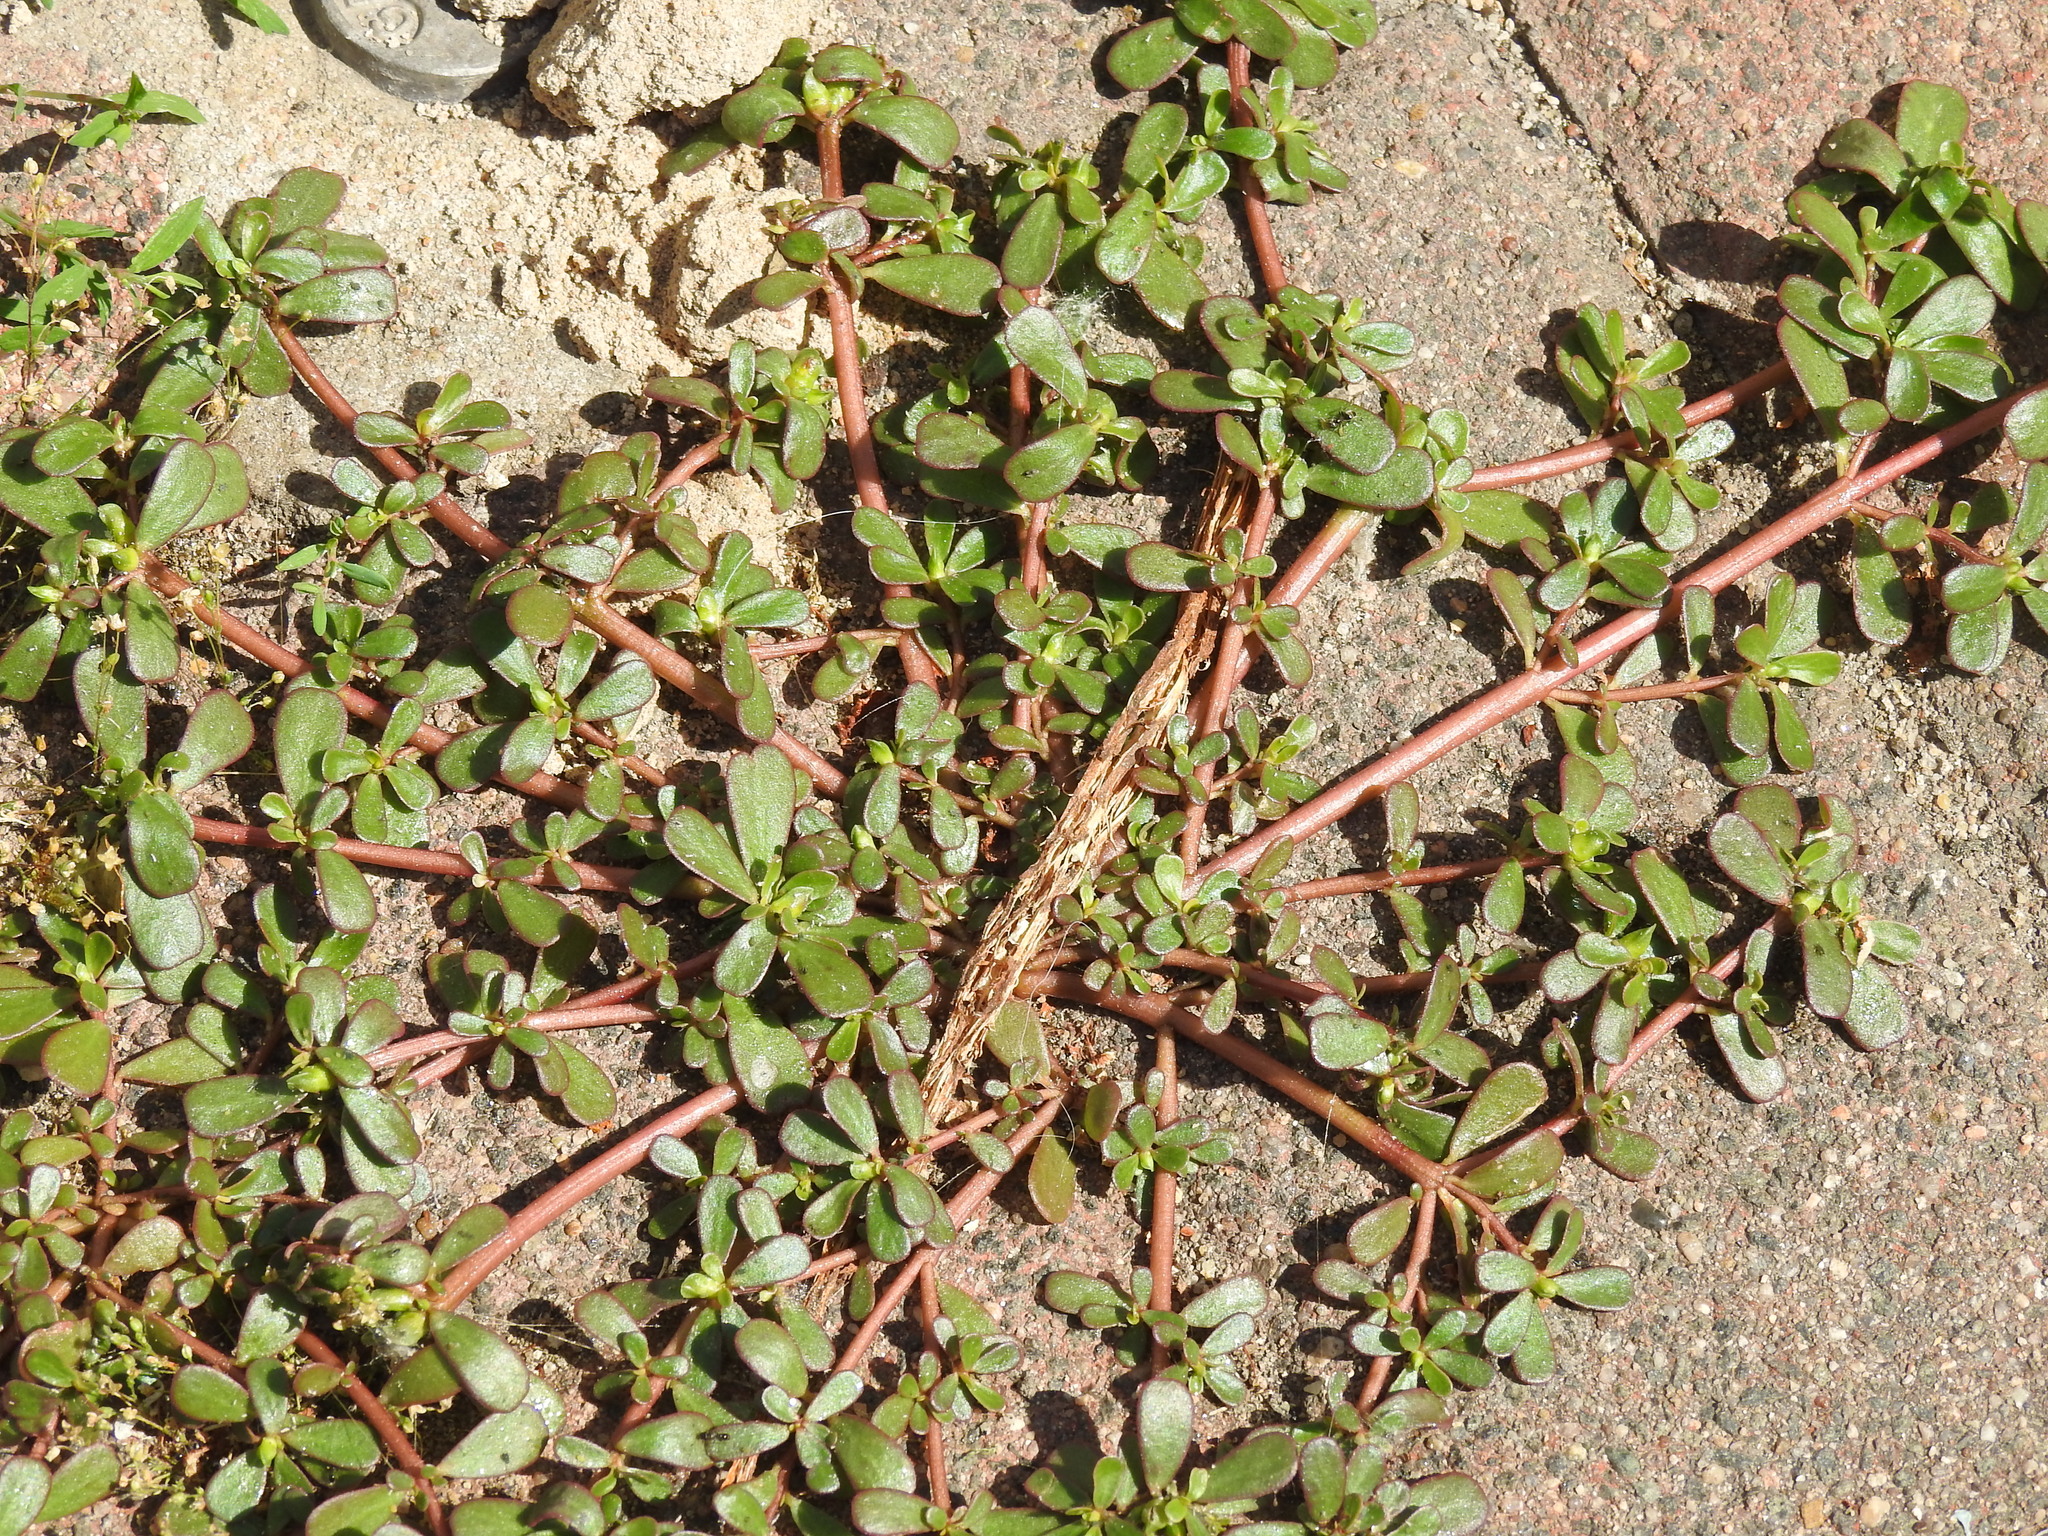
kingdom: Plantae
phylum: Tracheophyta
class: Magnoliopsida
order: Caryophyllales
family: Portulacaceae
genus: Portulaca
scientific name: Portulaca oleracea
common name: Common purslane
